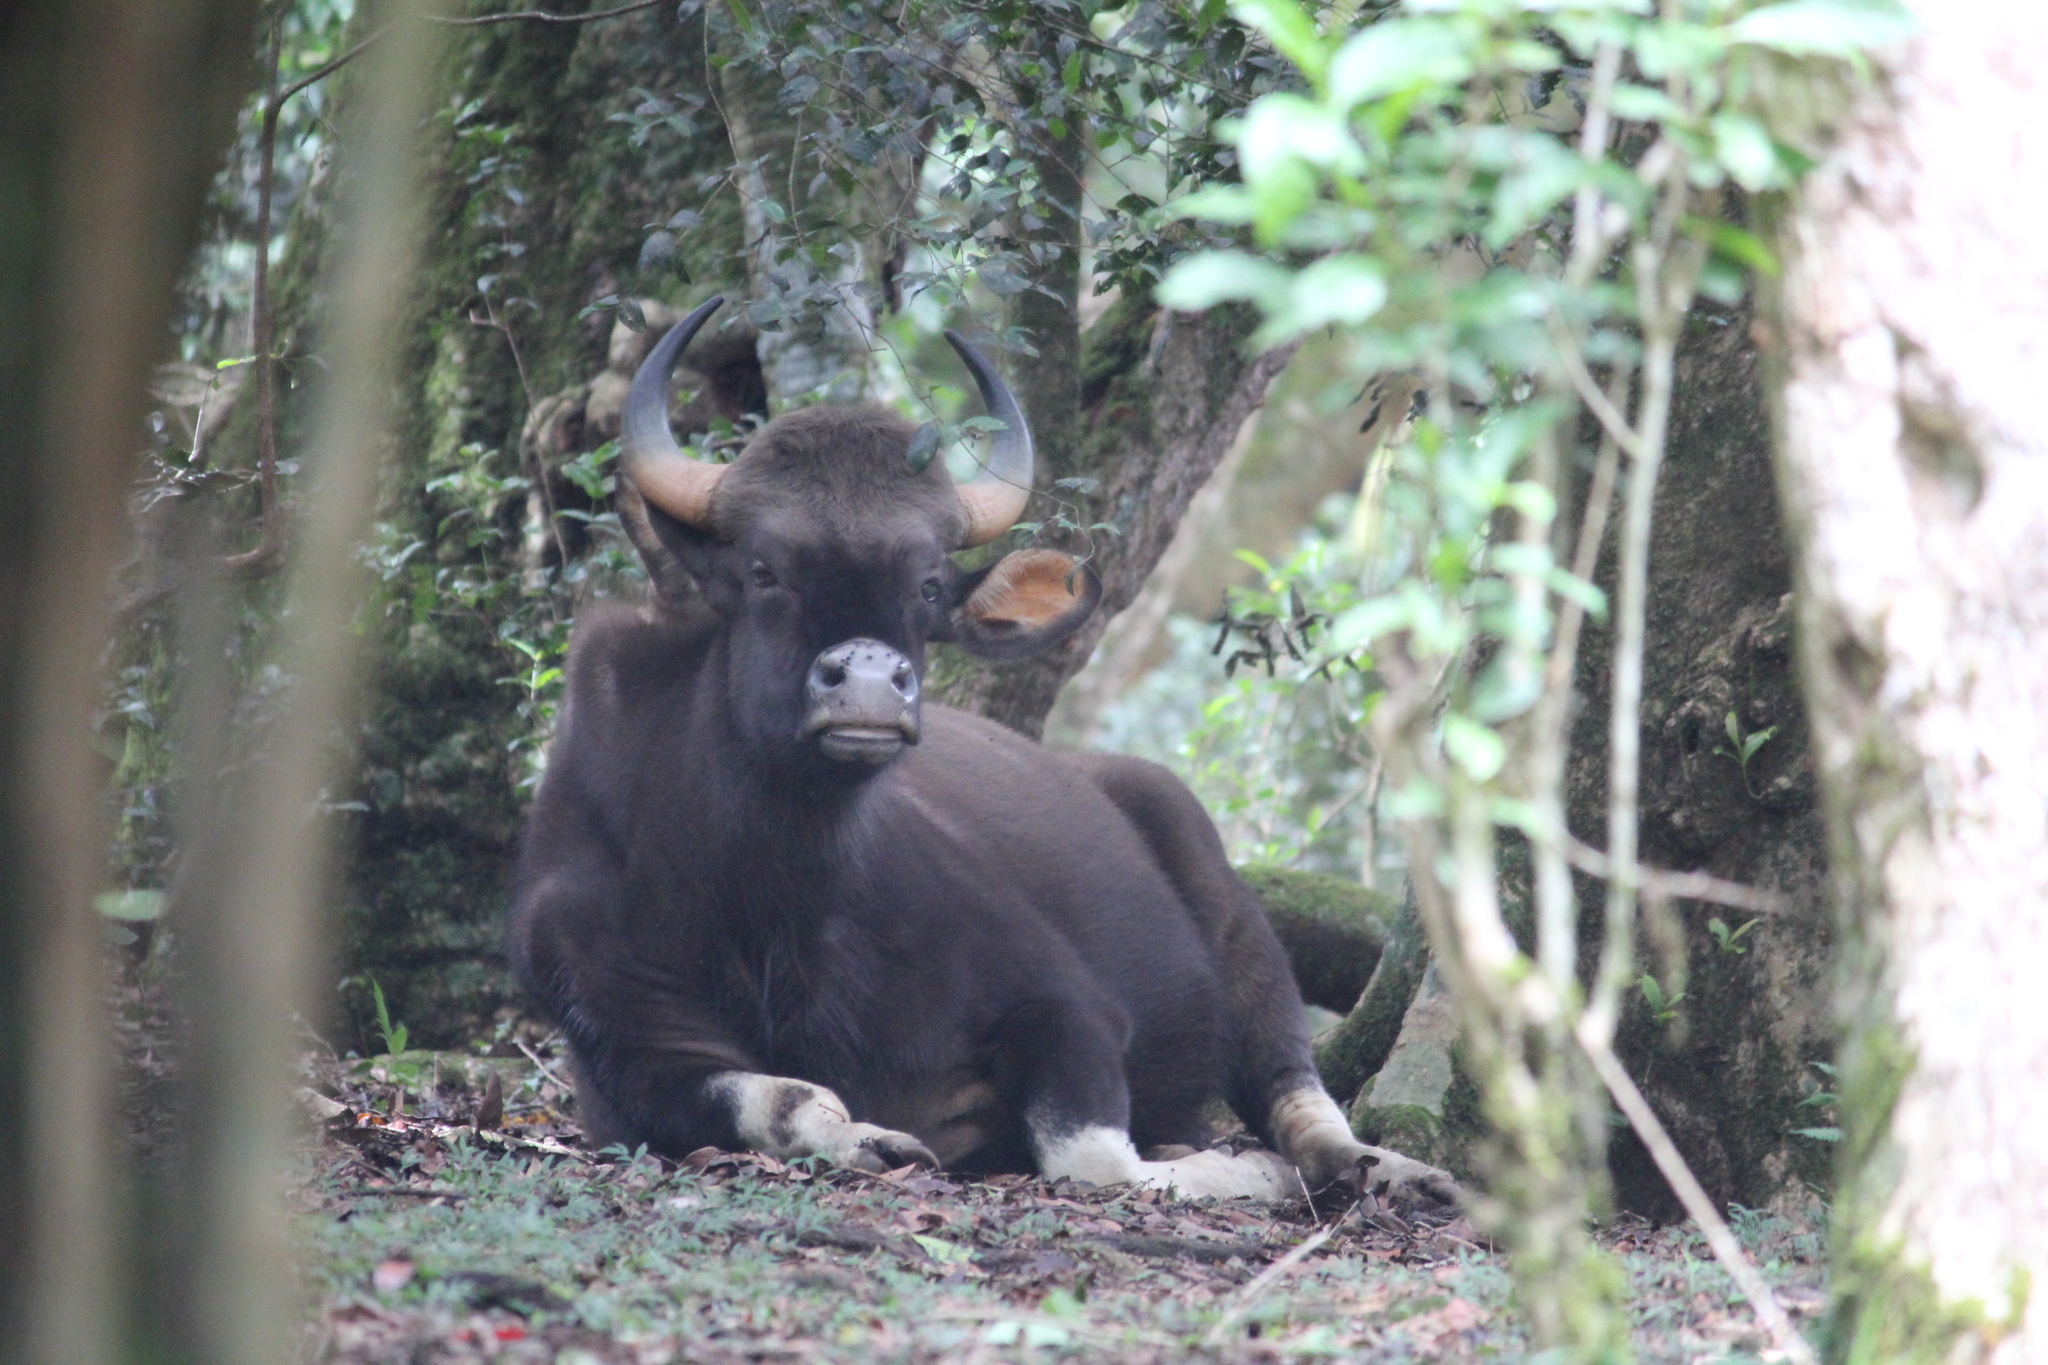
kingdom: Animalia
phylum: Chordata
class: Mammalia
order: Artiodactyla
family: Bovidae
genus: Bos
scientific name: Bos frontalis
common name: Gaur
